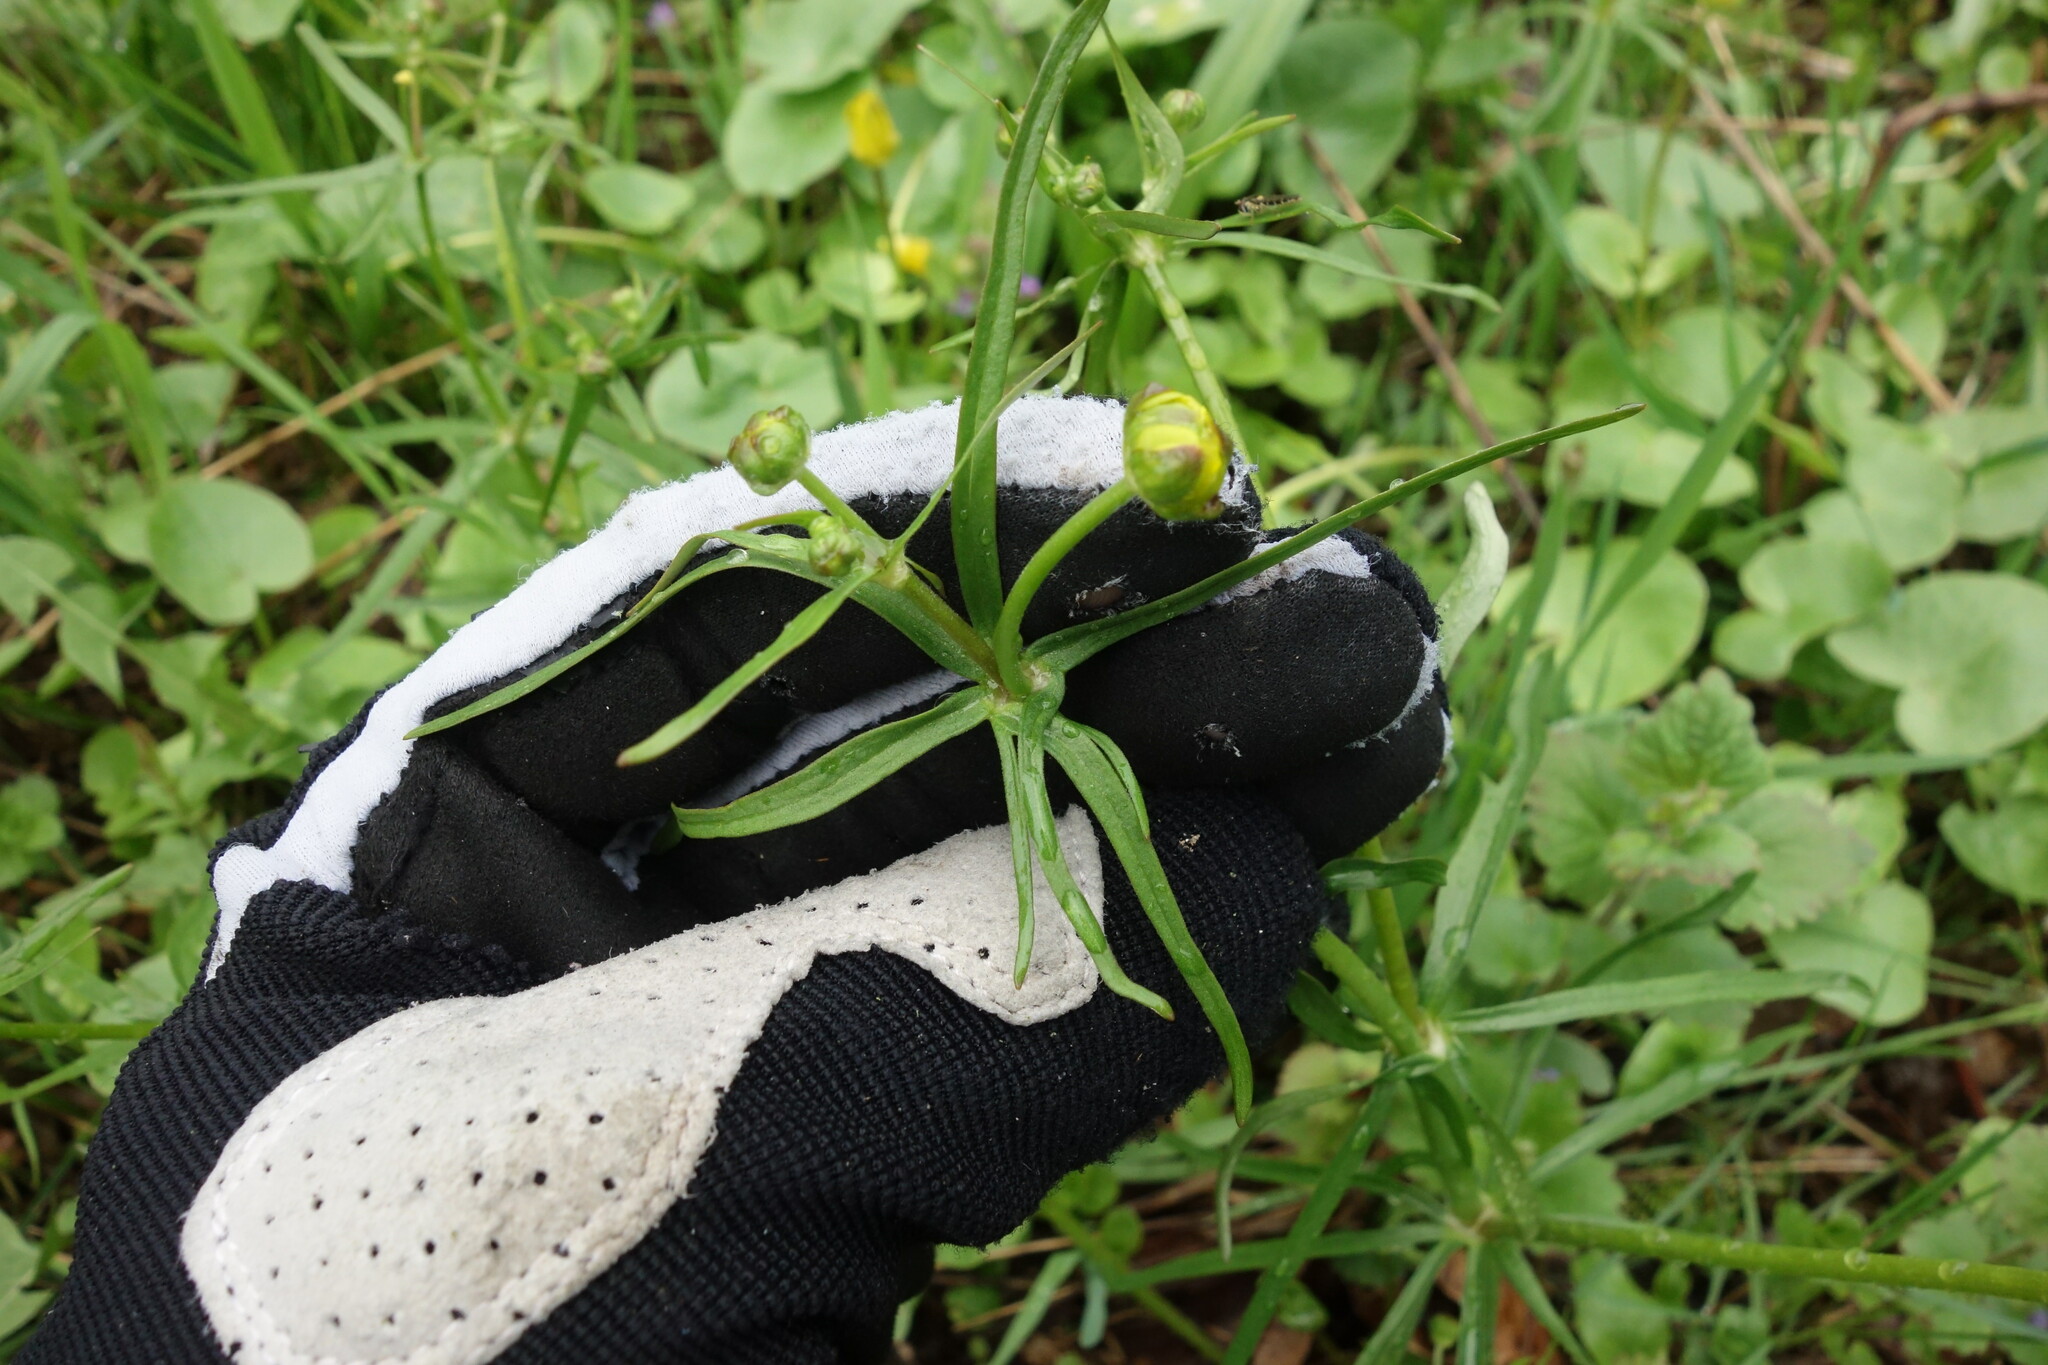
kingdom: Plantae
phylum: Tracheophyta
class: Magnoliopsida
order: Ranunculales
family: Ranunculaceae
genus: Ranunculus
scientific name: Ranunculus auricomus
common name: Goldilocks buttercup
